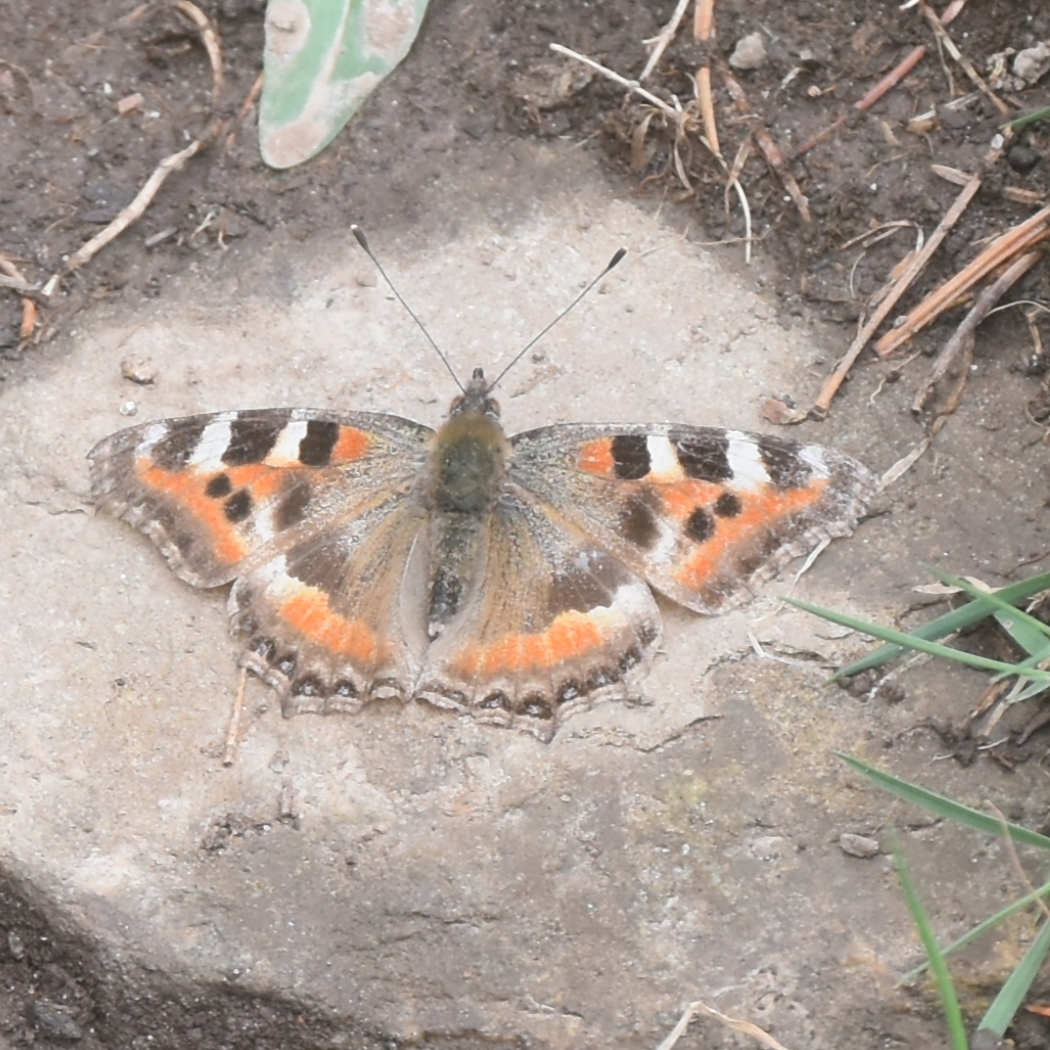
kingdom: Animalia
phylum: Arthropoda
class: Insecta
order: Lepidoptera
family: Nymphalidae
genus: Aglais
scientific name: Aglais caschmirensis
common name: Indian tortoiseshell
